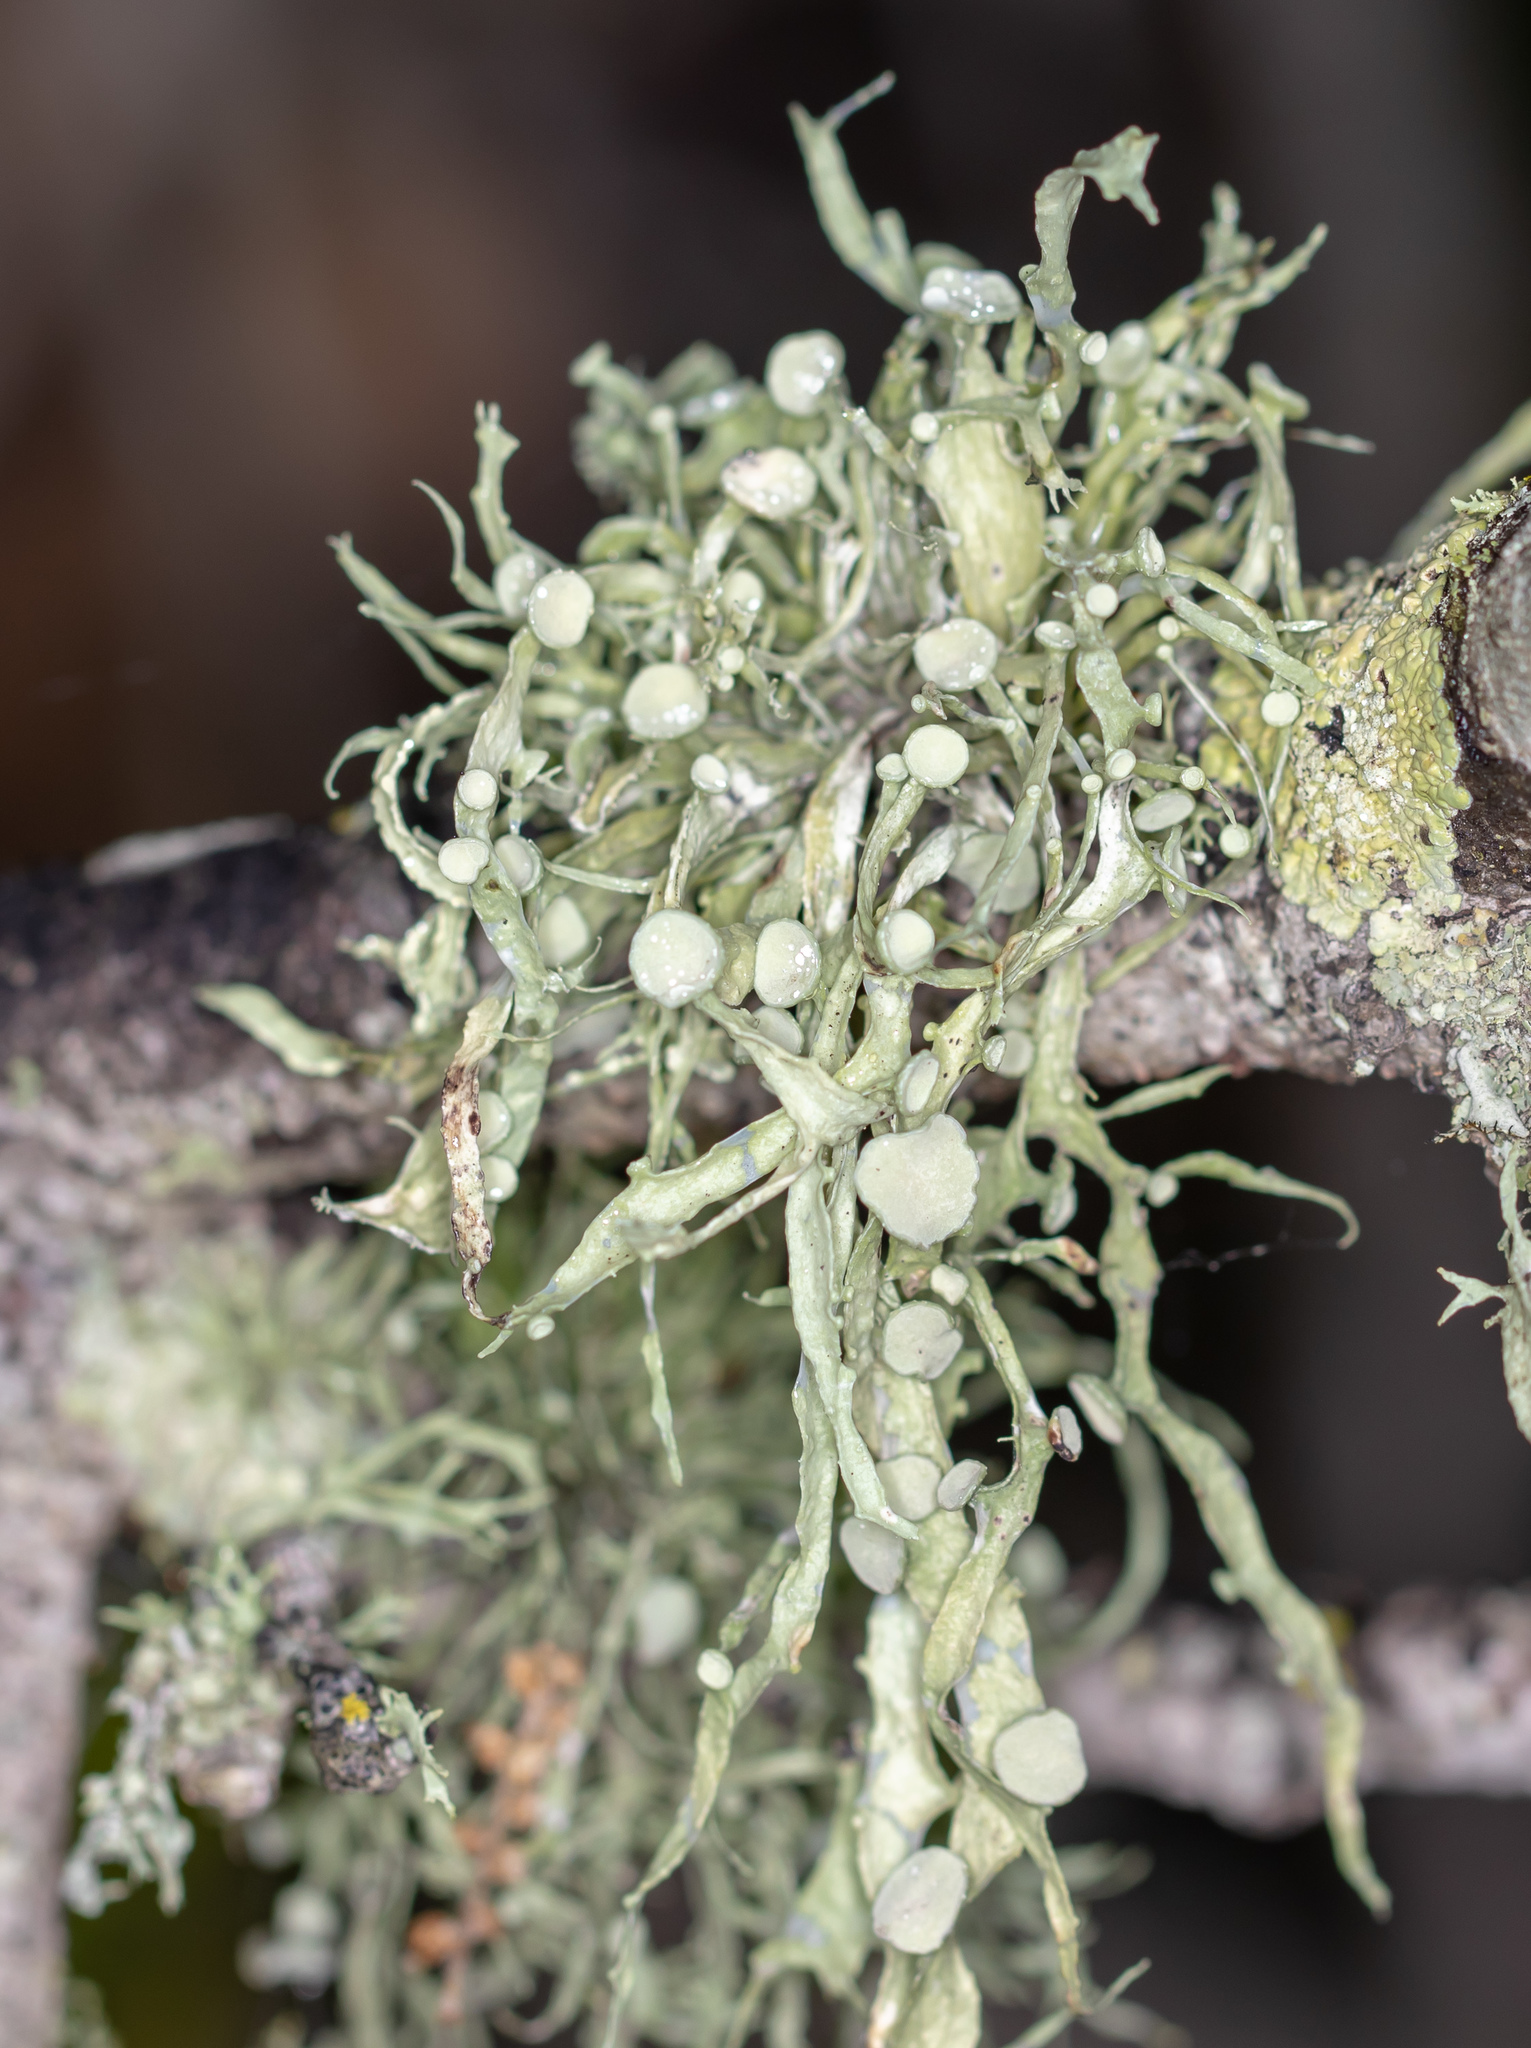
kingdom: Fungi
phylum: Ascomycota
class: Lecanoromycetes
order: Lecanorales
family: Ramalinaceae
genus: Ramalina
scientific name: Ramalina leptocarpha
